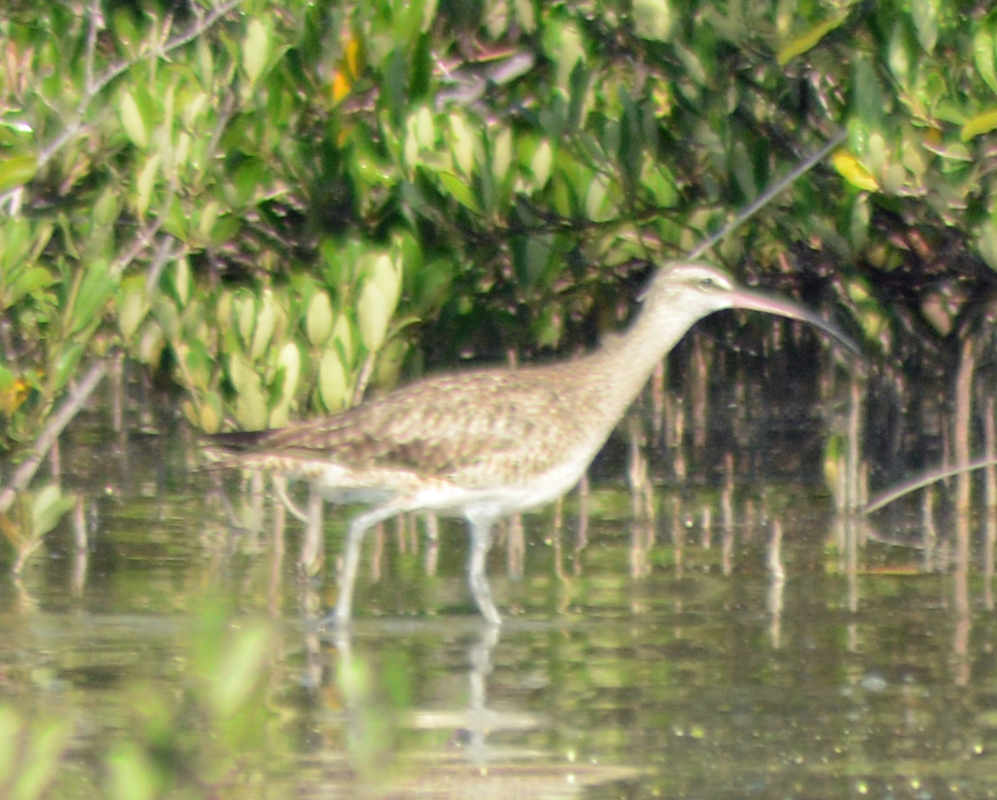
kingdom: Animalia
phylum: Chordata
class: Aves
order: Charadriiformes
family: Scolopacidae
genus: Numenius
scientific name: Numenius phaeopus
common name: Whimbrel
